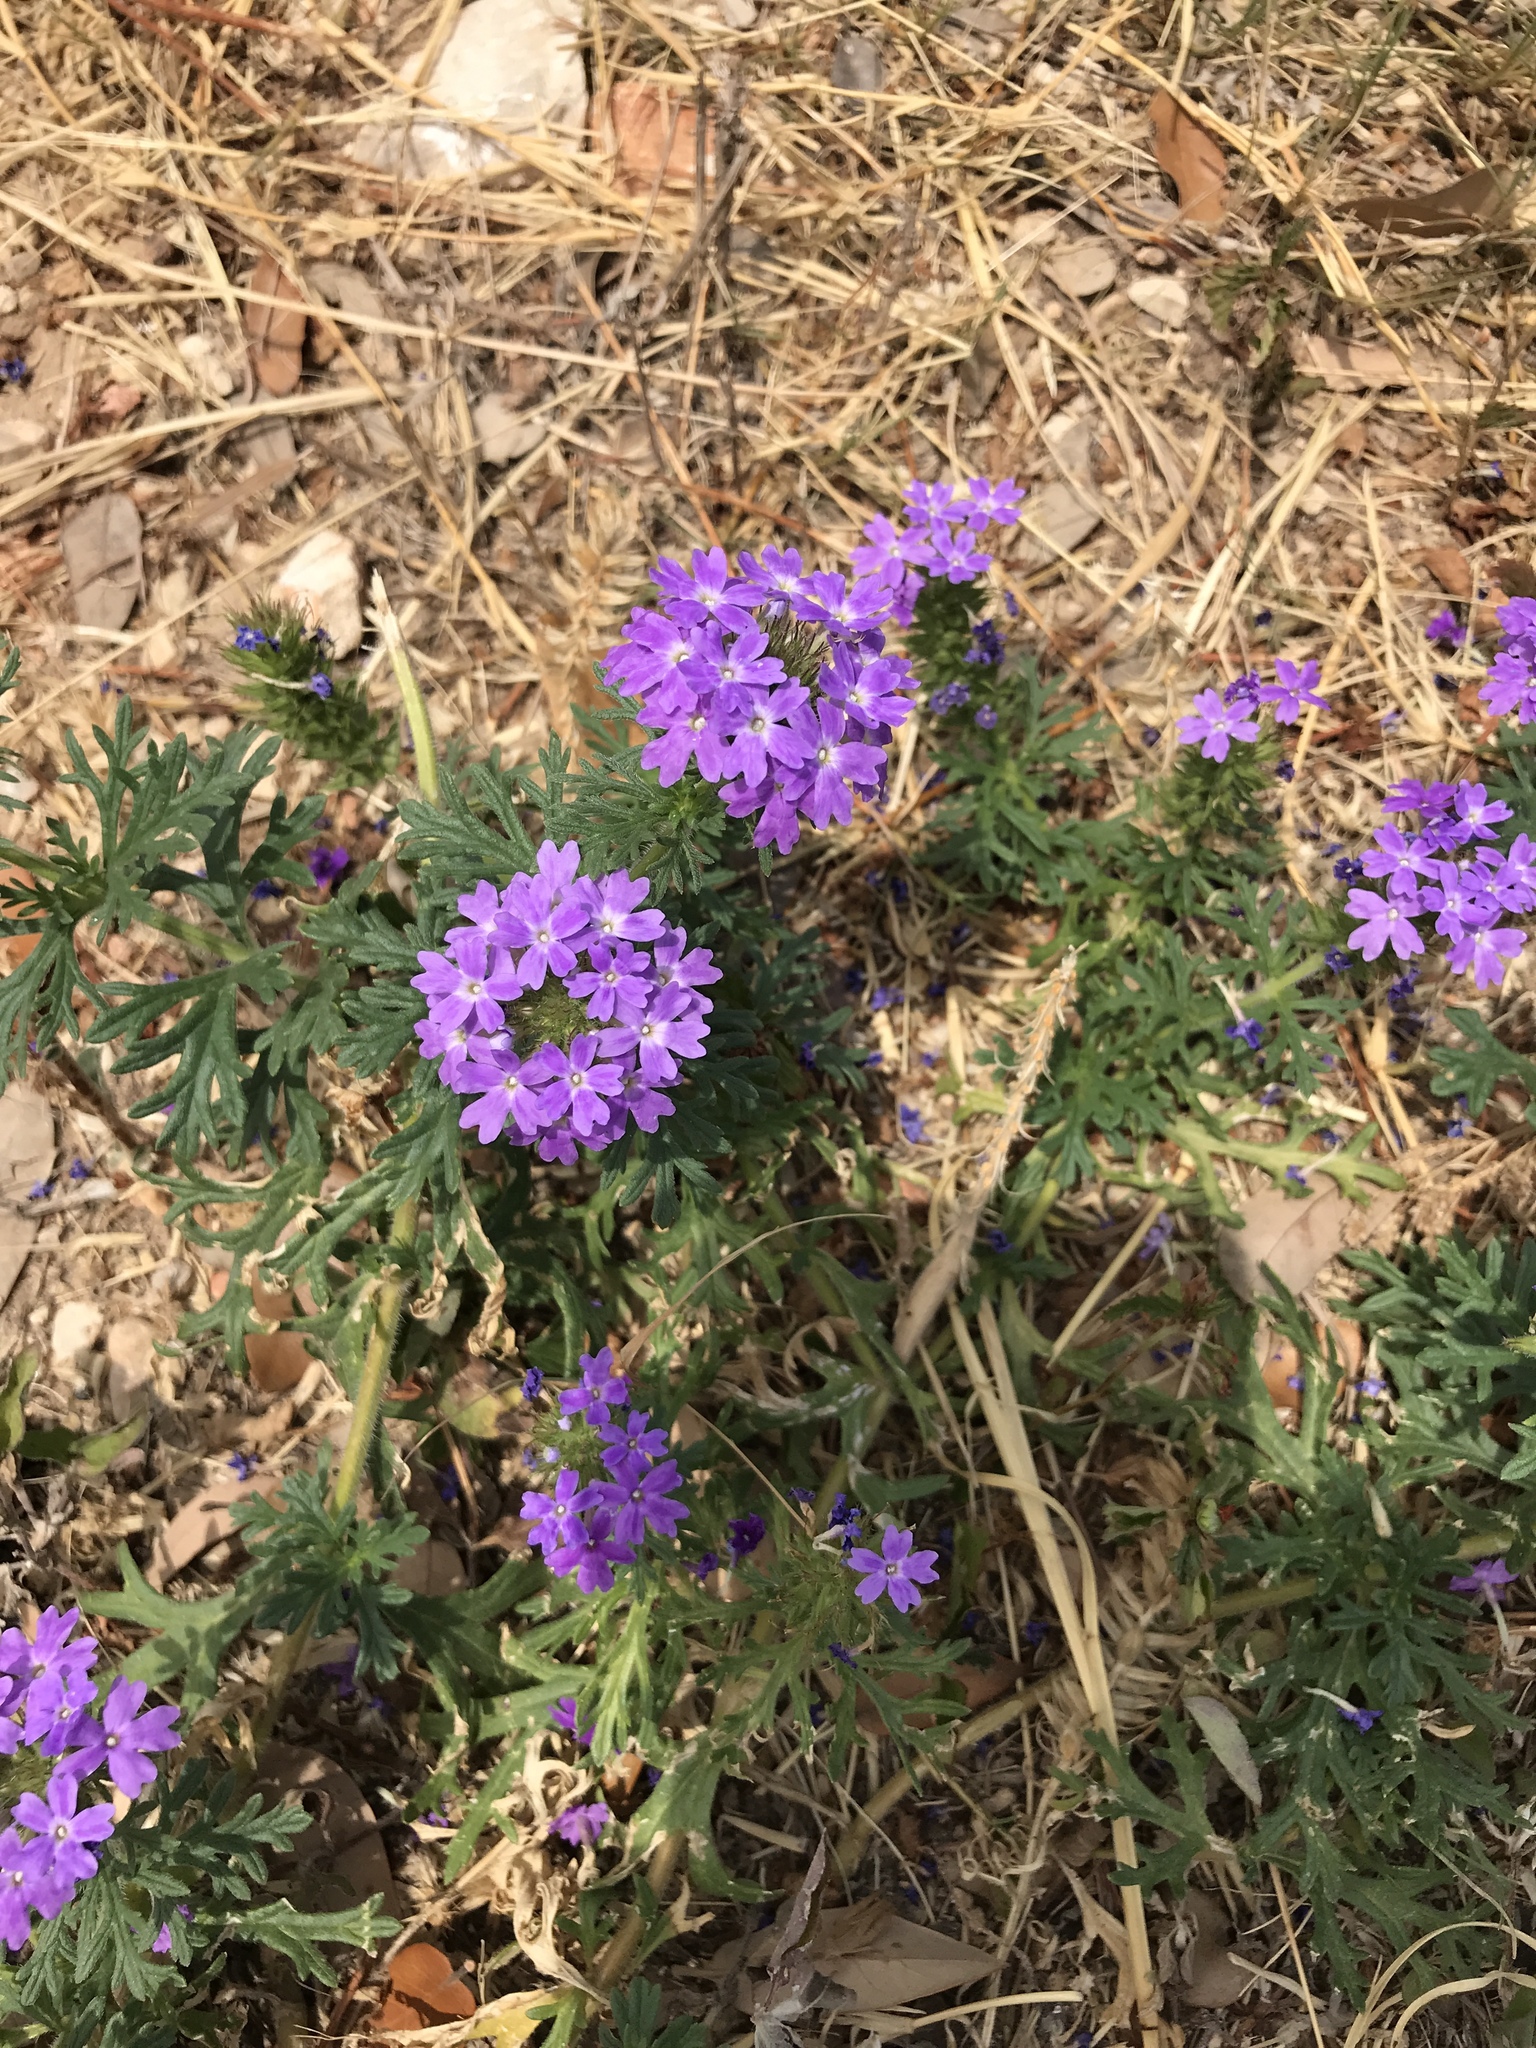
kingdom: Plantae
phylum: Tracheophyta
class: Magnoliopsida
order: Lamiales
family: Verbenaceae
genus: Verbena
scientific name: Verbena bipinnatifida
